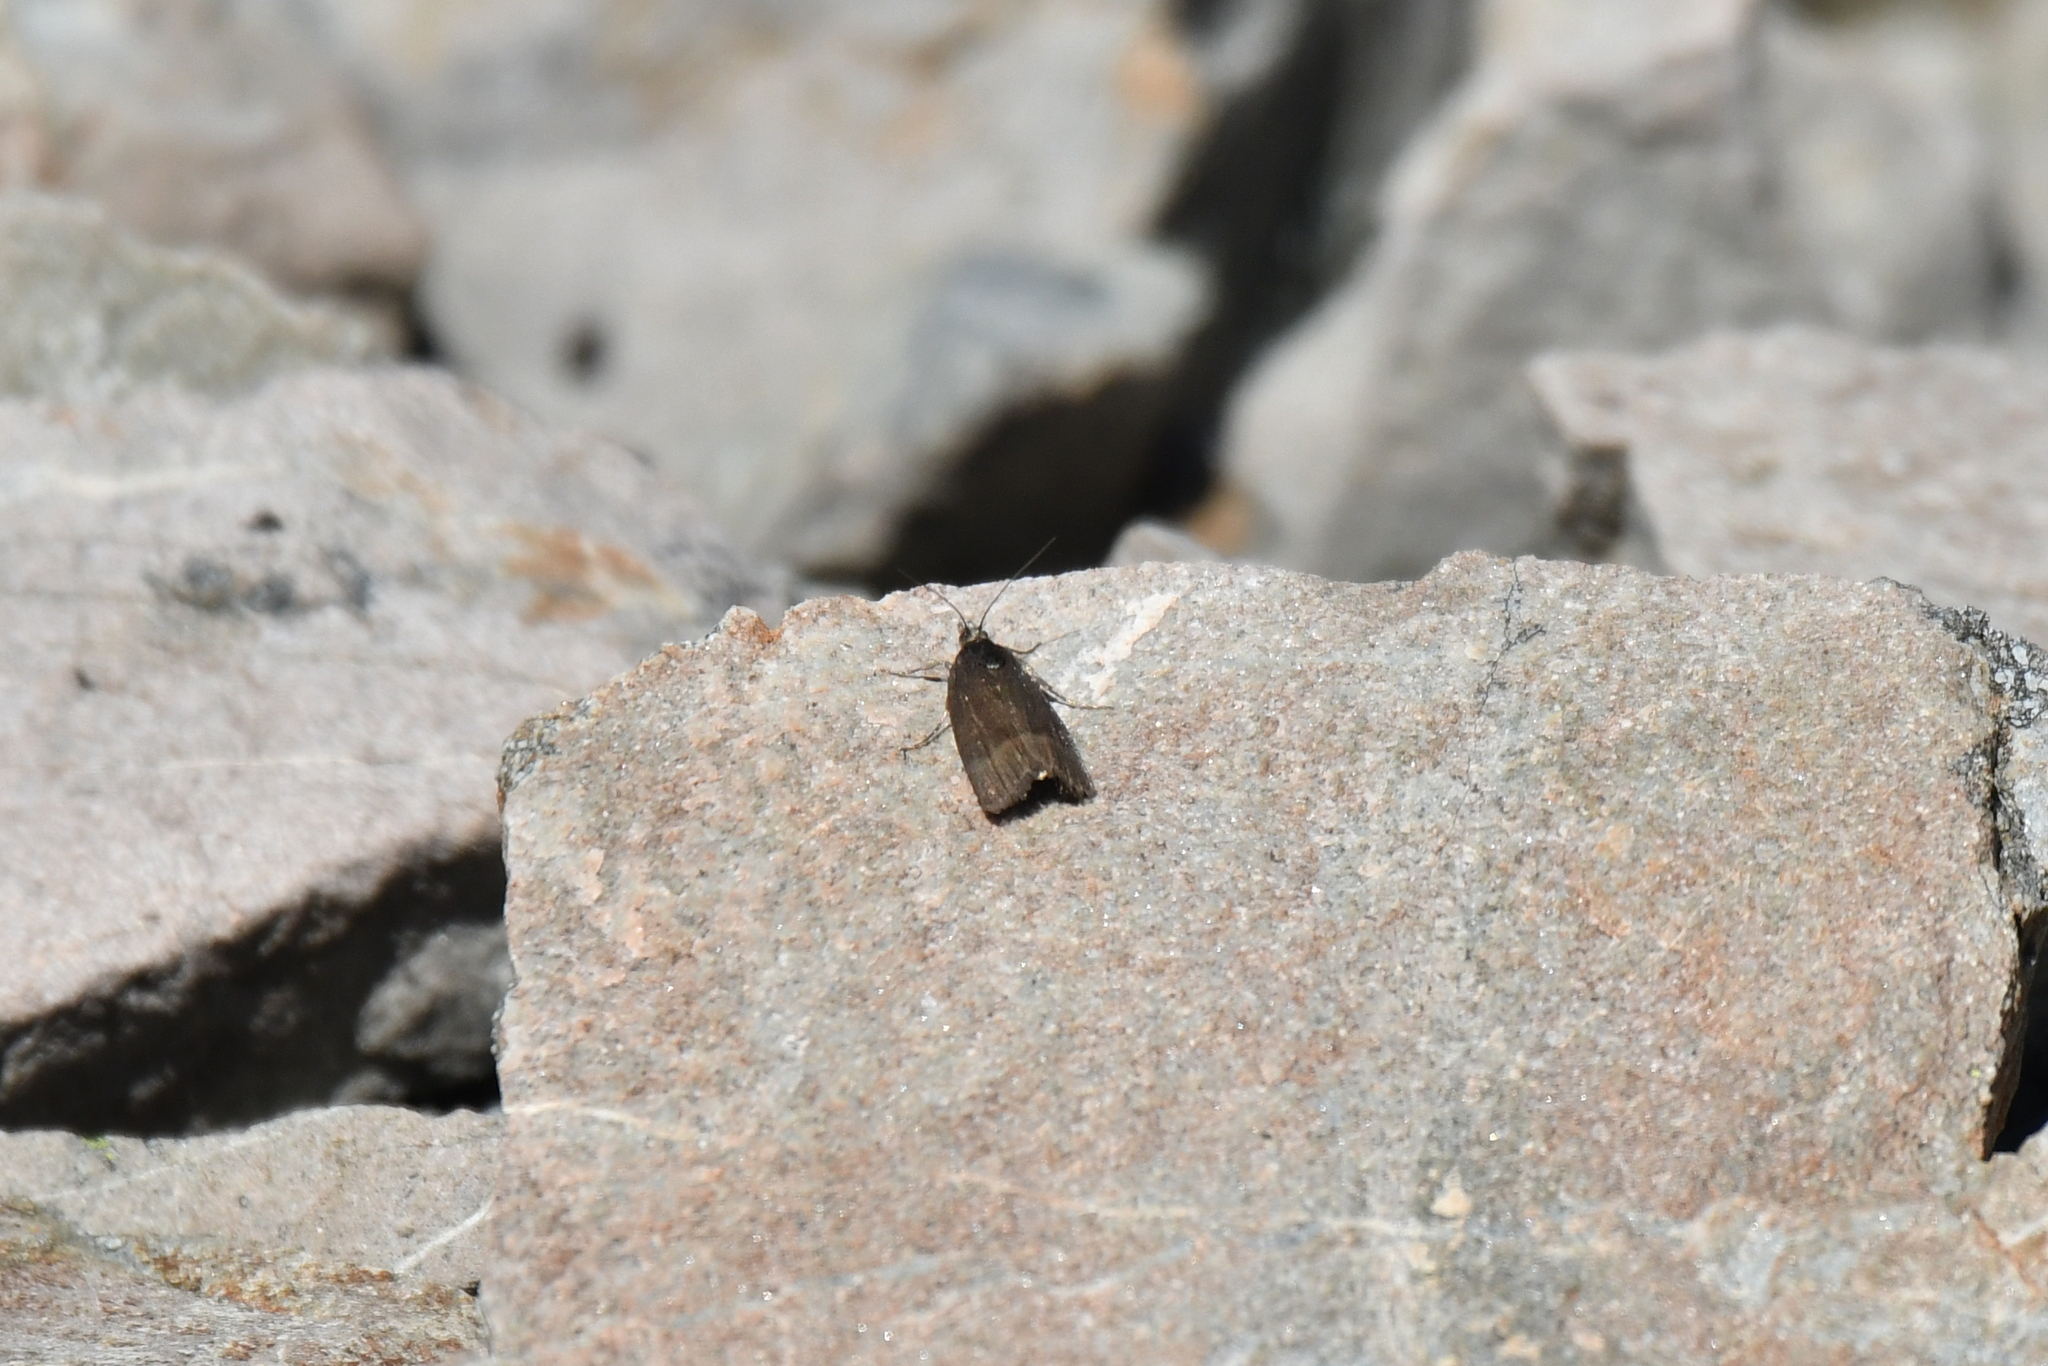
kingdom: Animalia
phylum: Arthropoda
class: Insecta
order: Lepidoptera
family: Crambidae
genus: Orocrambus
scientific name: Orocrambus melampetrus
